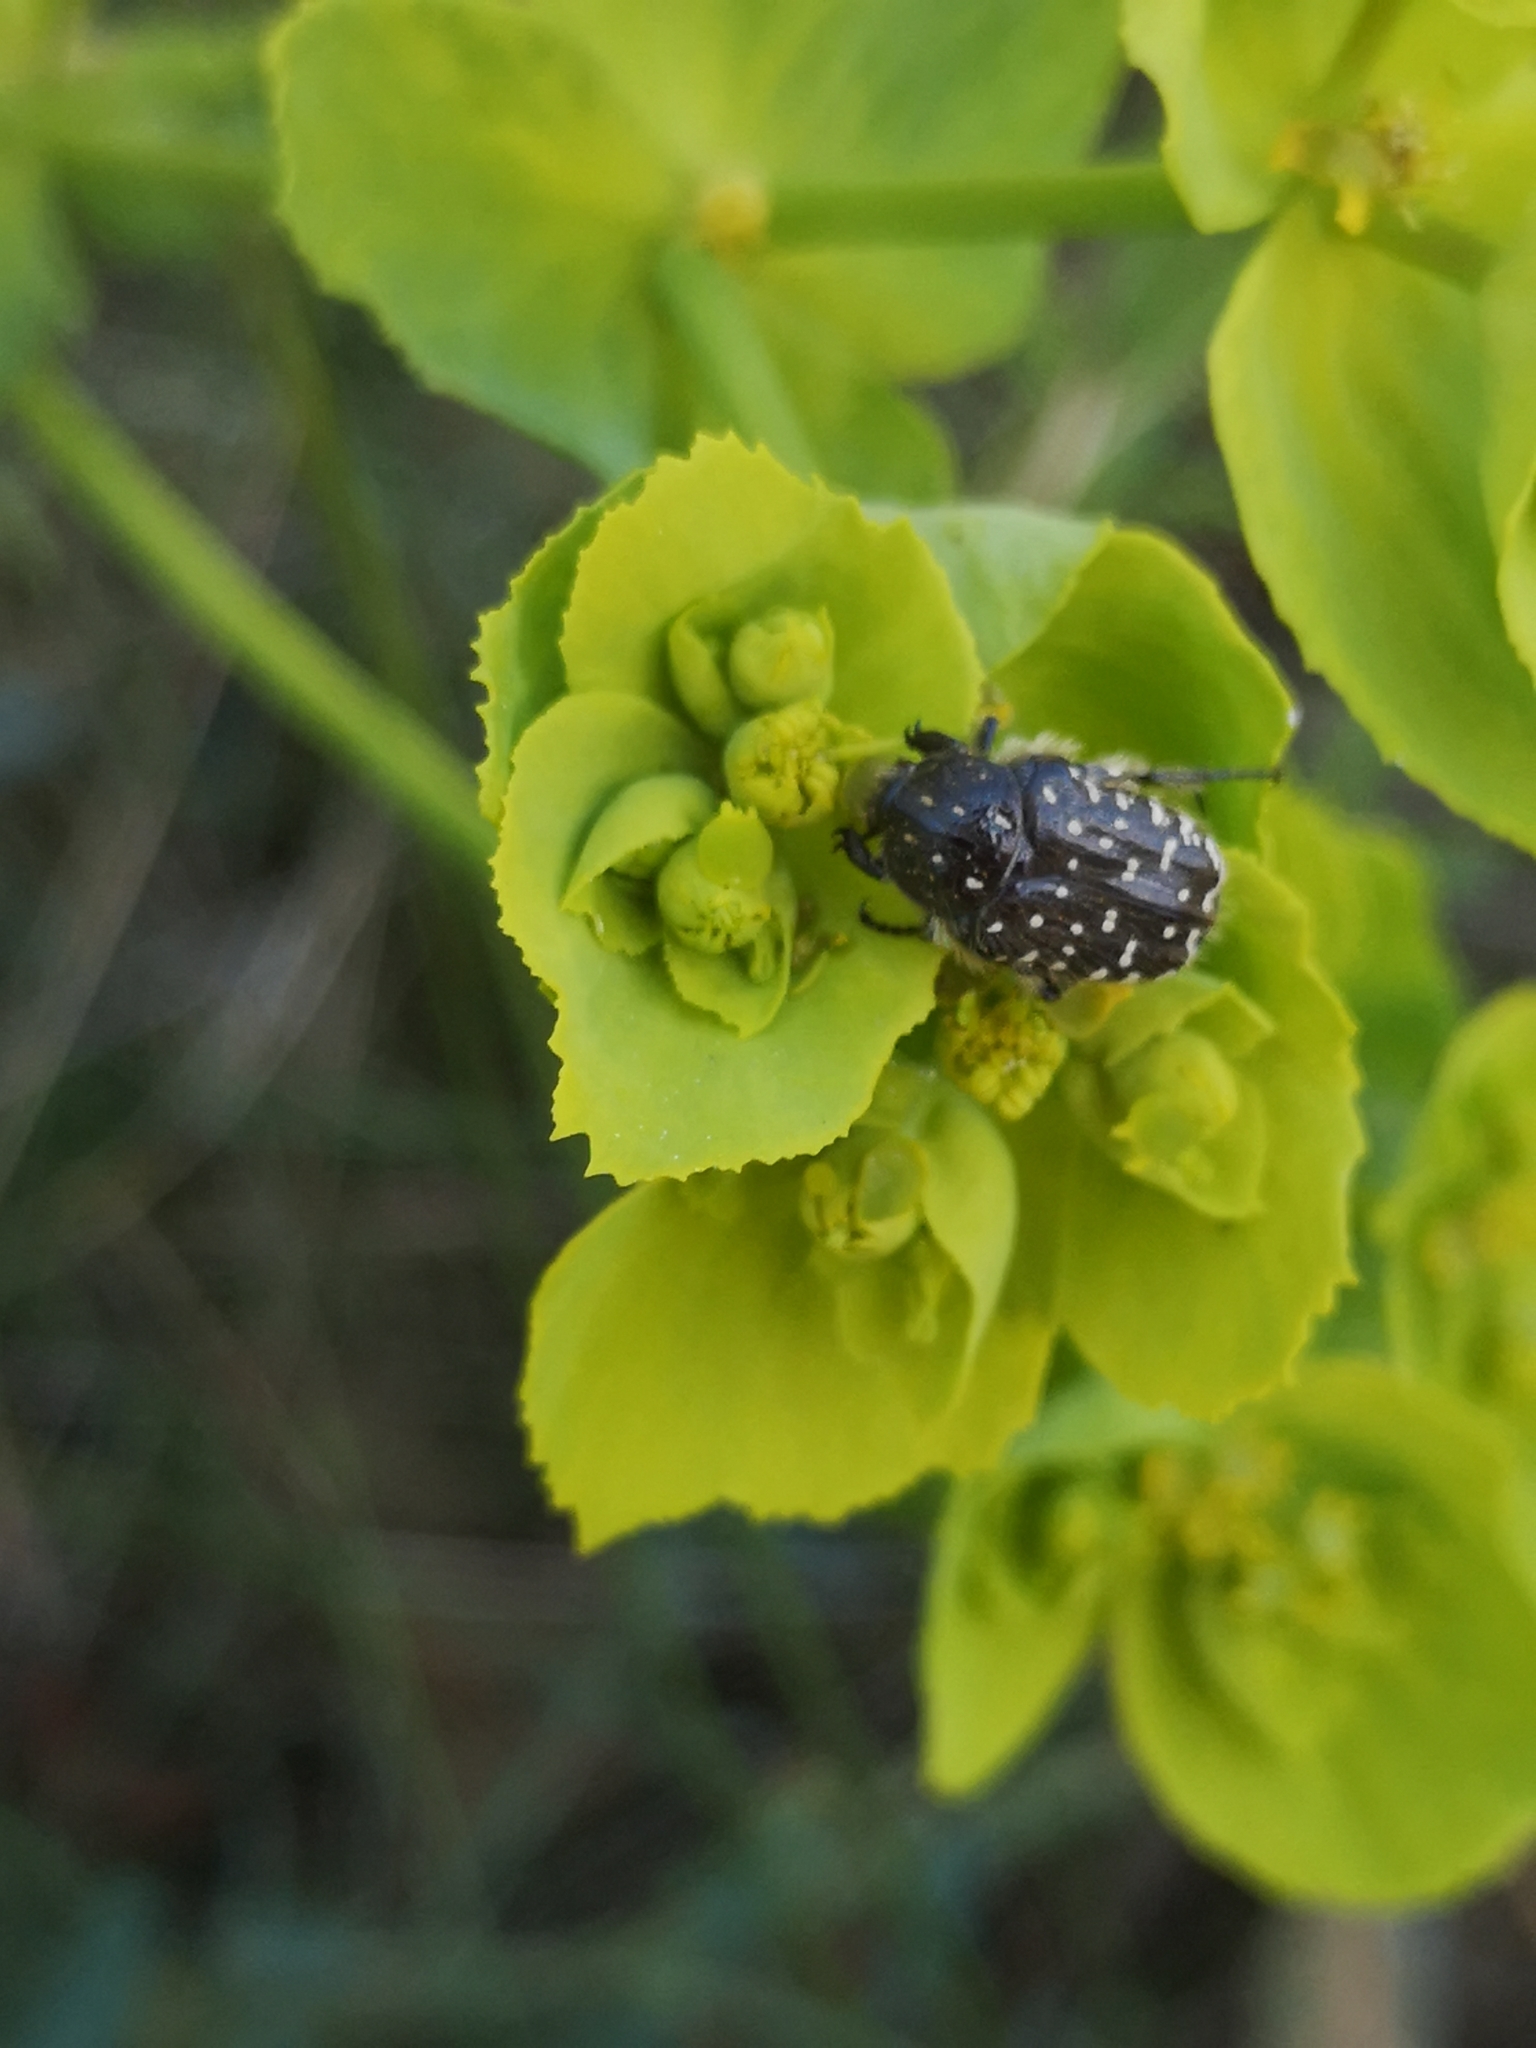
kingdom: Animalia
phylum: Arthropoda
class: Insecta
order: Coleoptera
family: Scarabaeidae
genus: Oxythyrea
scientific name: Oxythyrea funesta
